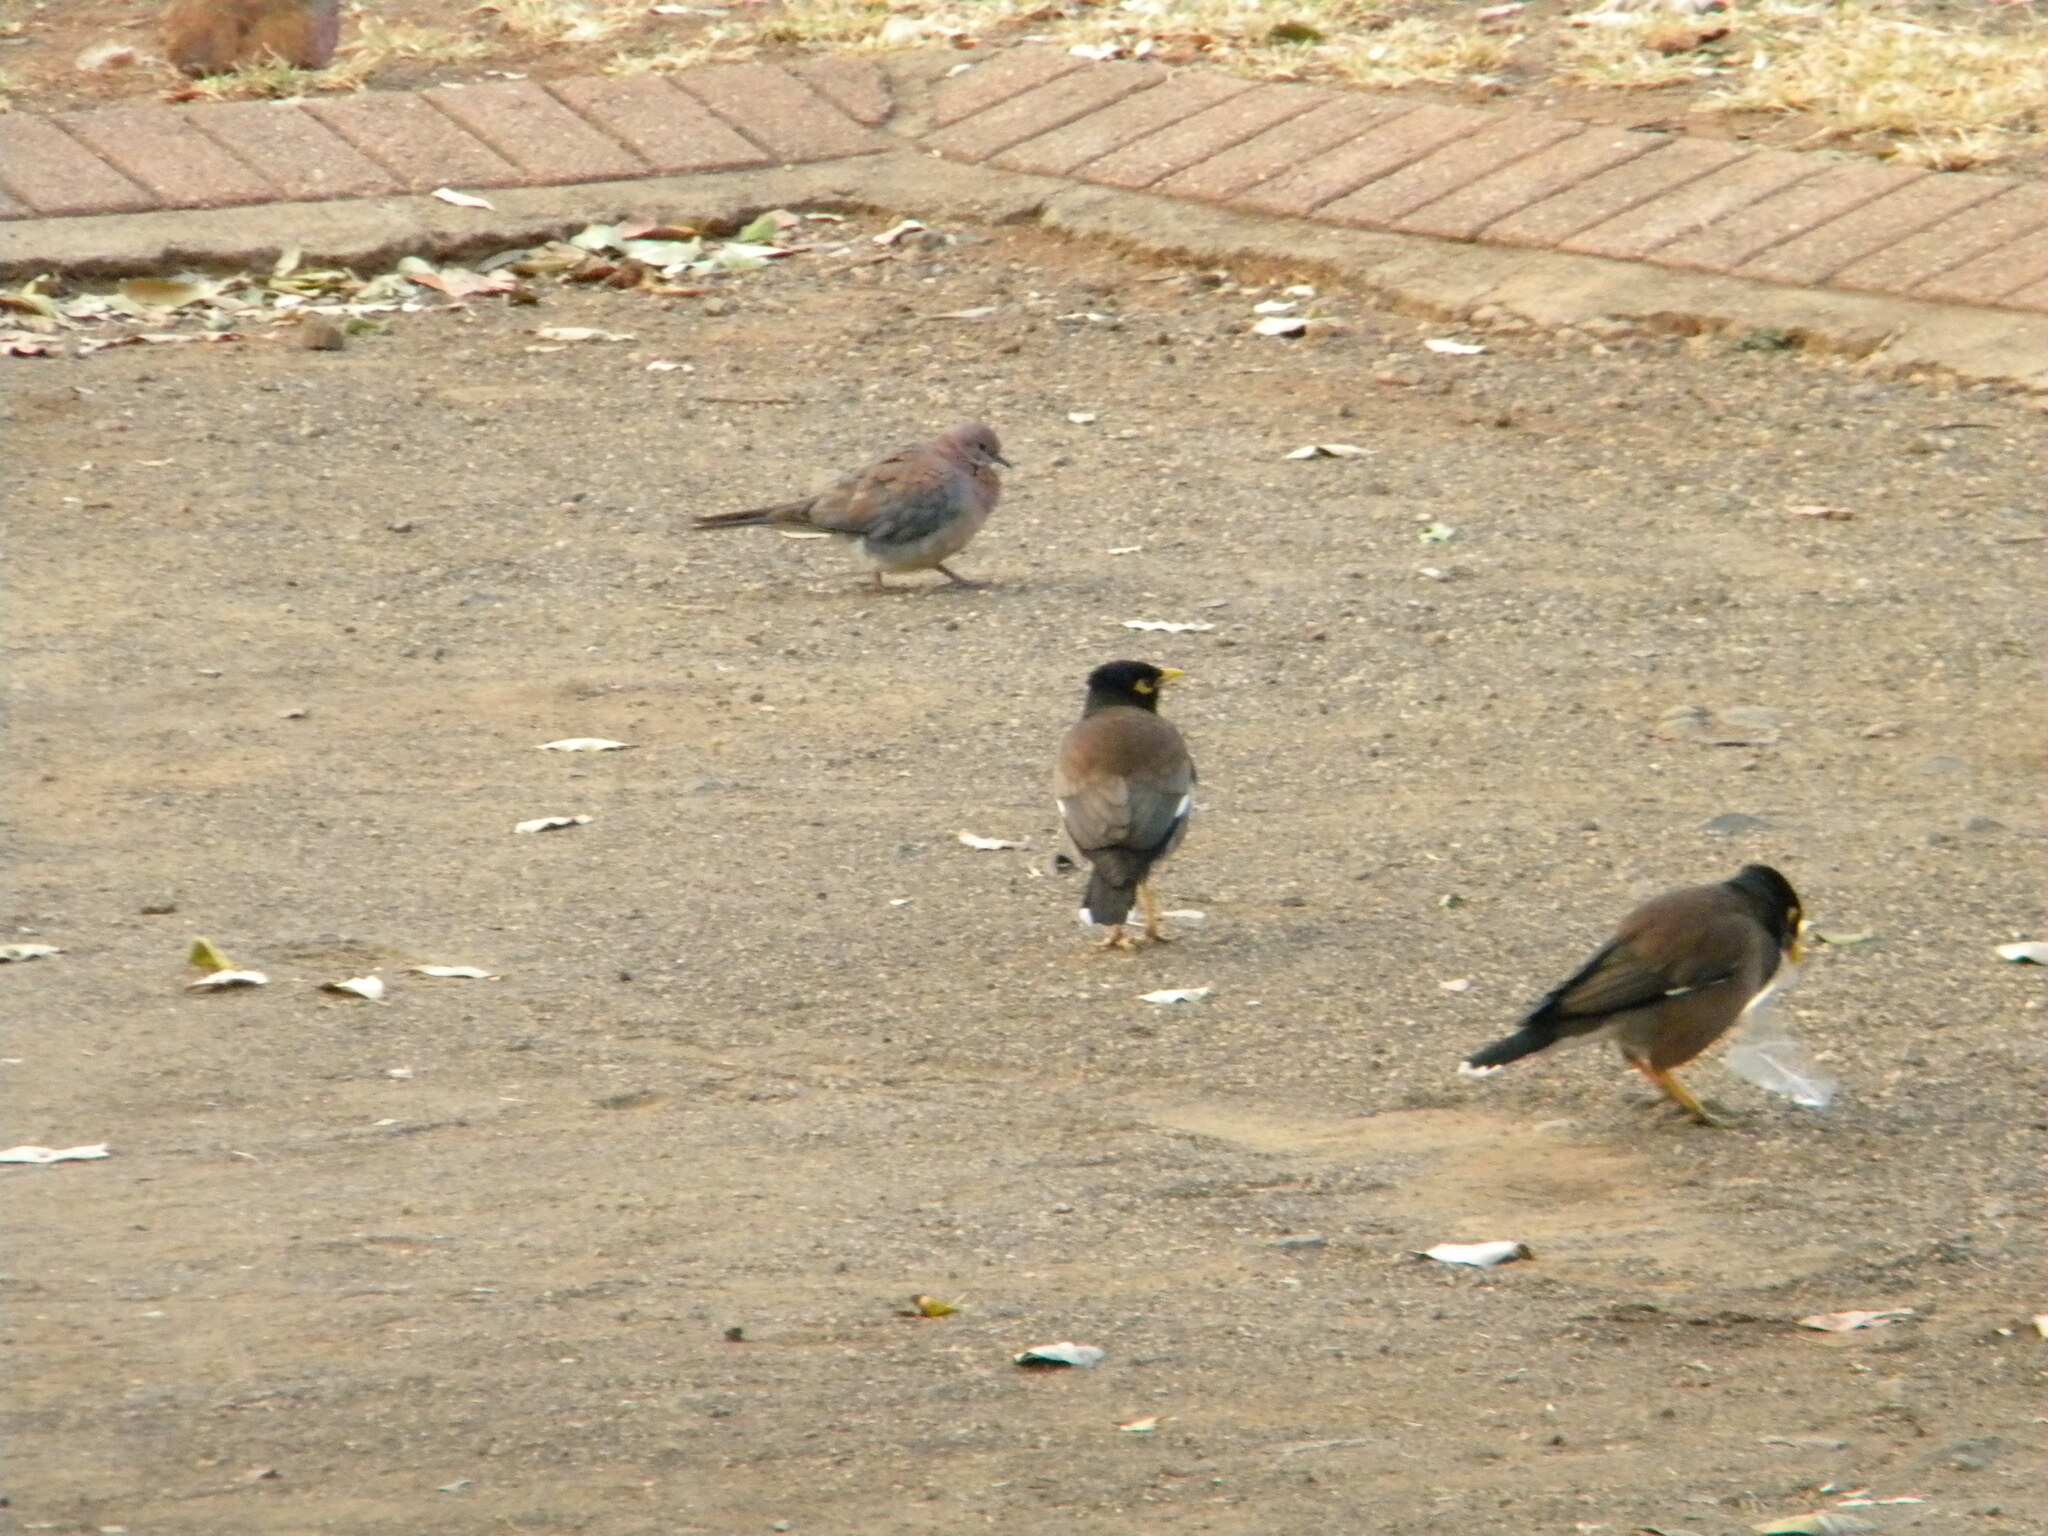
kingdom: Animalia
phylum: Chordata
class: Aves
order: Passeriformes
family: Sturnidae
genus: Acridotheres
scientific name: Acridotheres tristis
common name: Common myna
